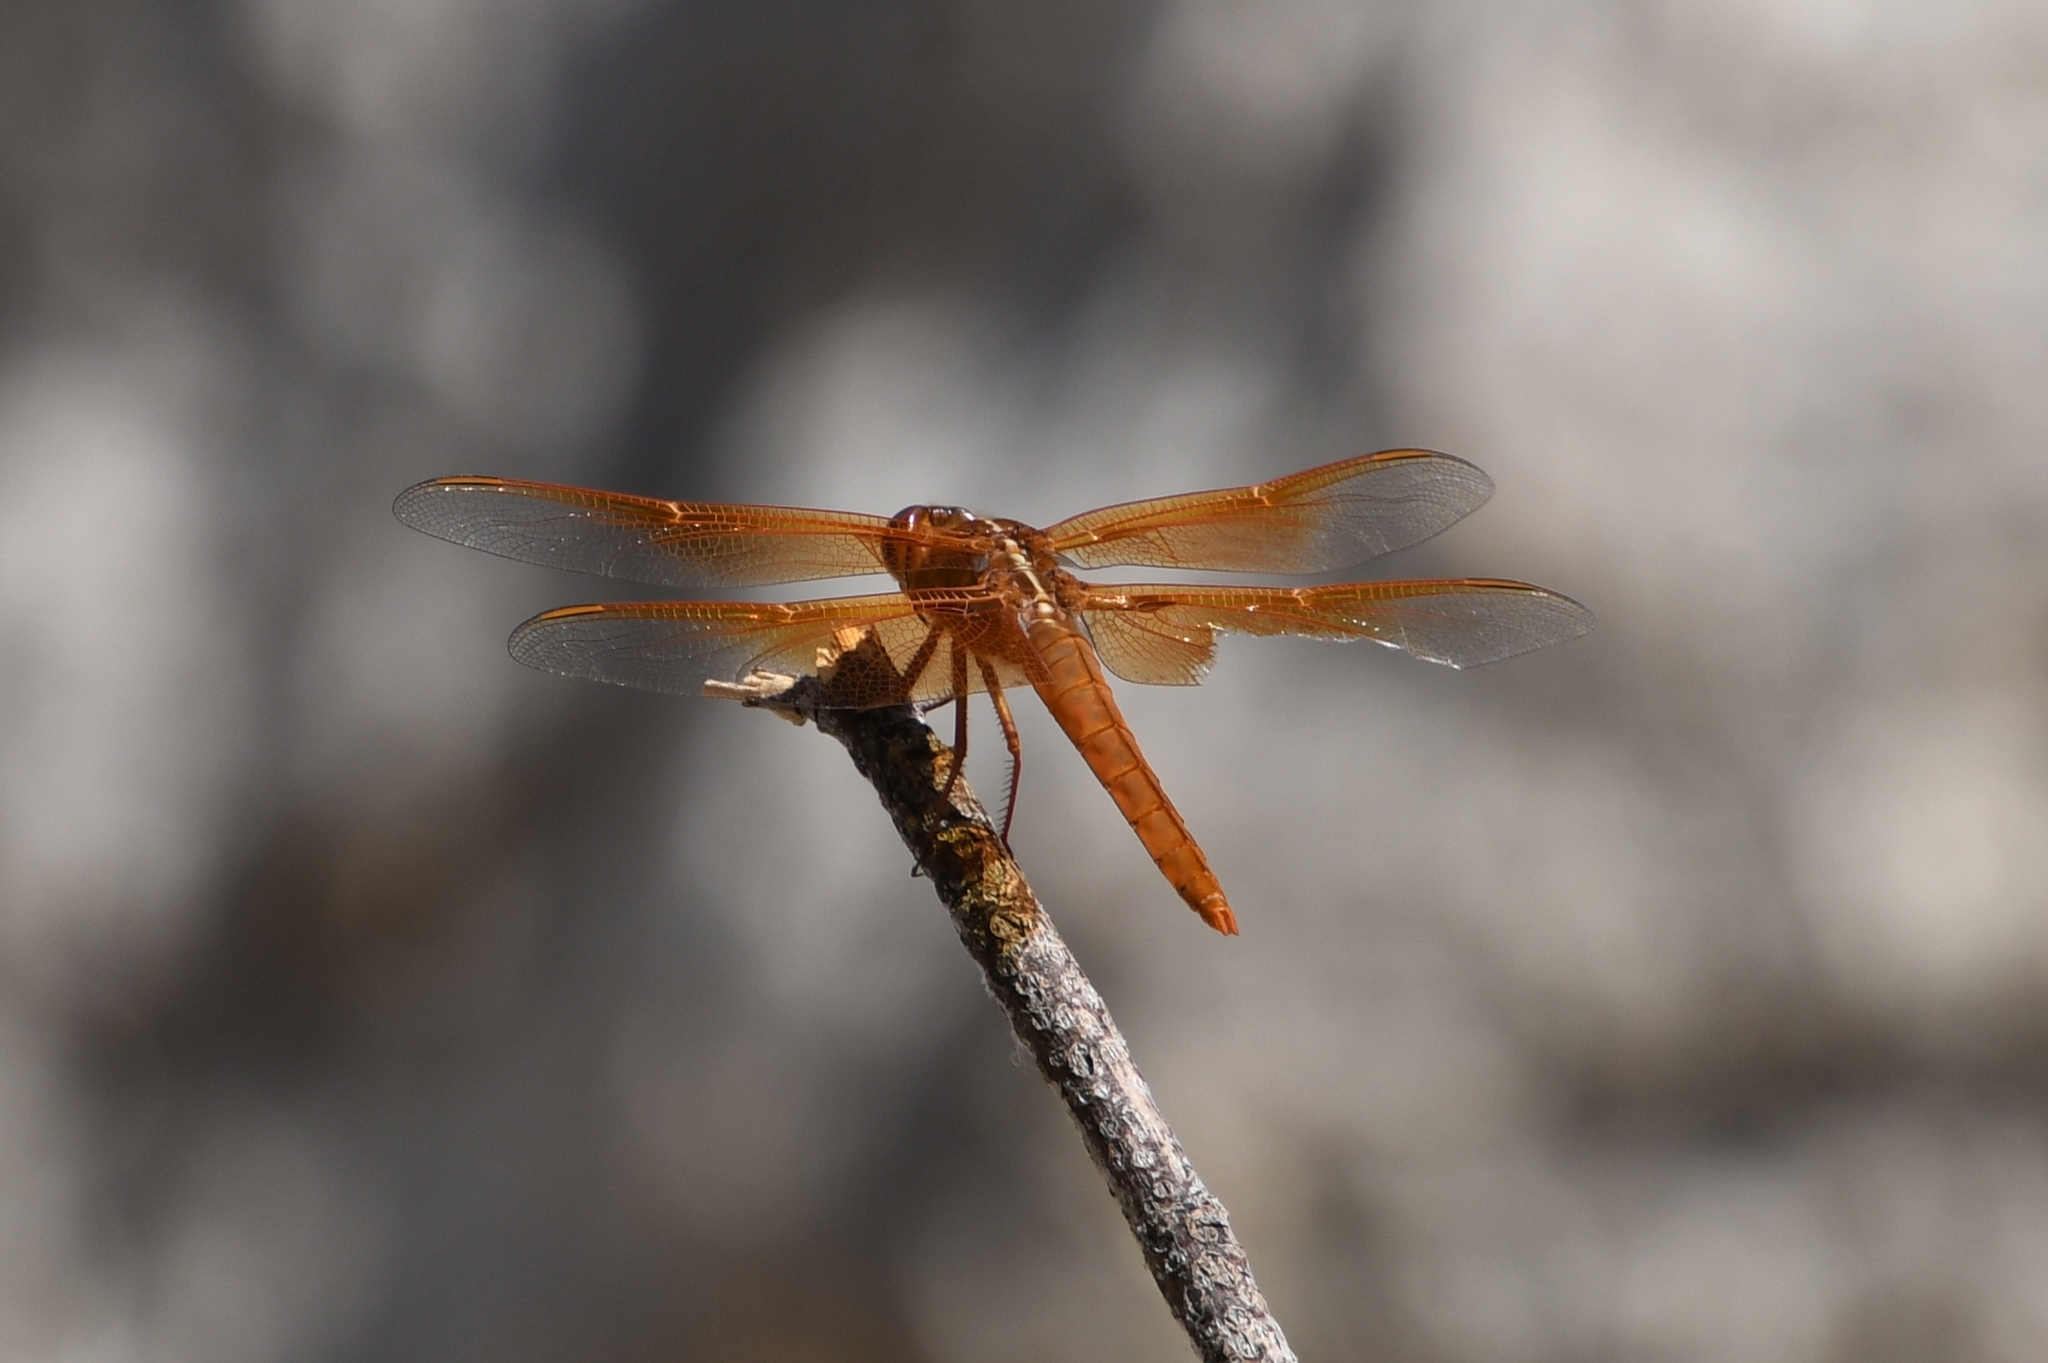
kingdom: Animalia
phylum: Arthropoda
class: Insecta
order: Odonata
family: Libellulidae
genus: Libellula
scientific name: Libellula saturata
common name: Flame skimmer
